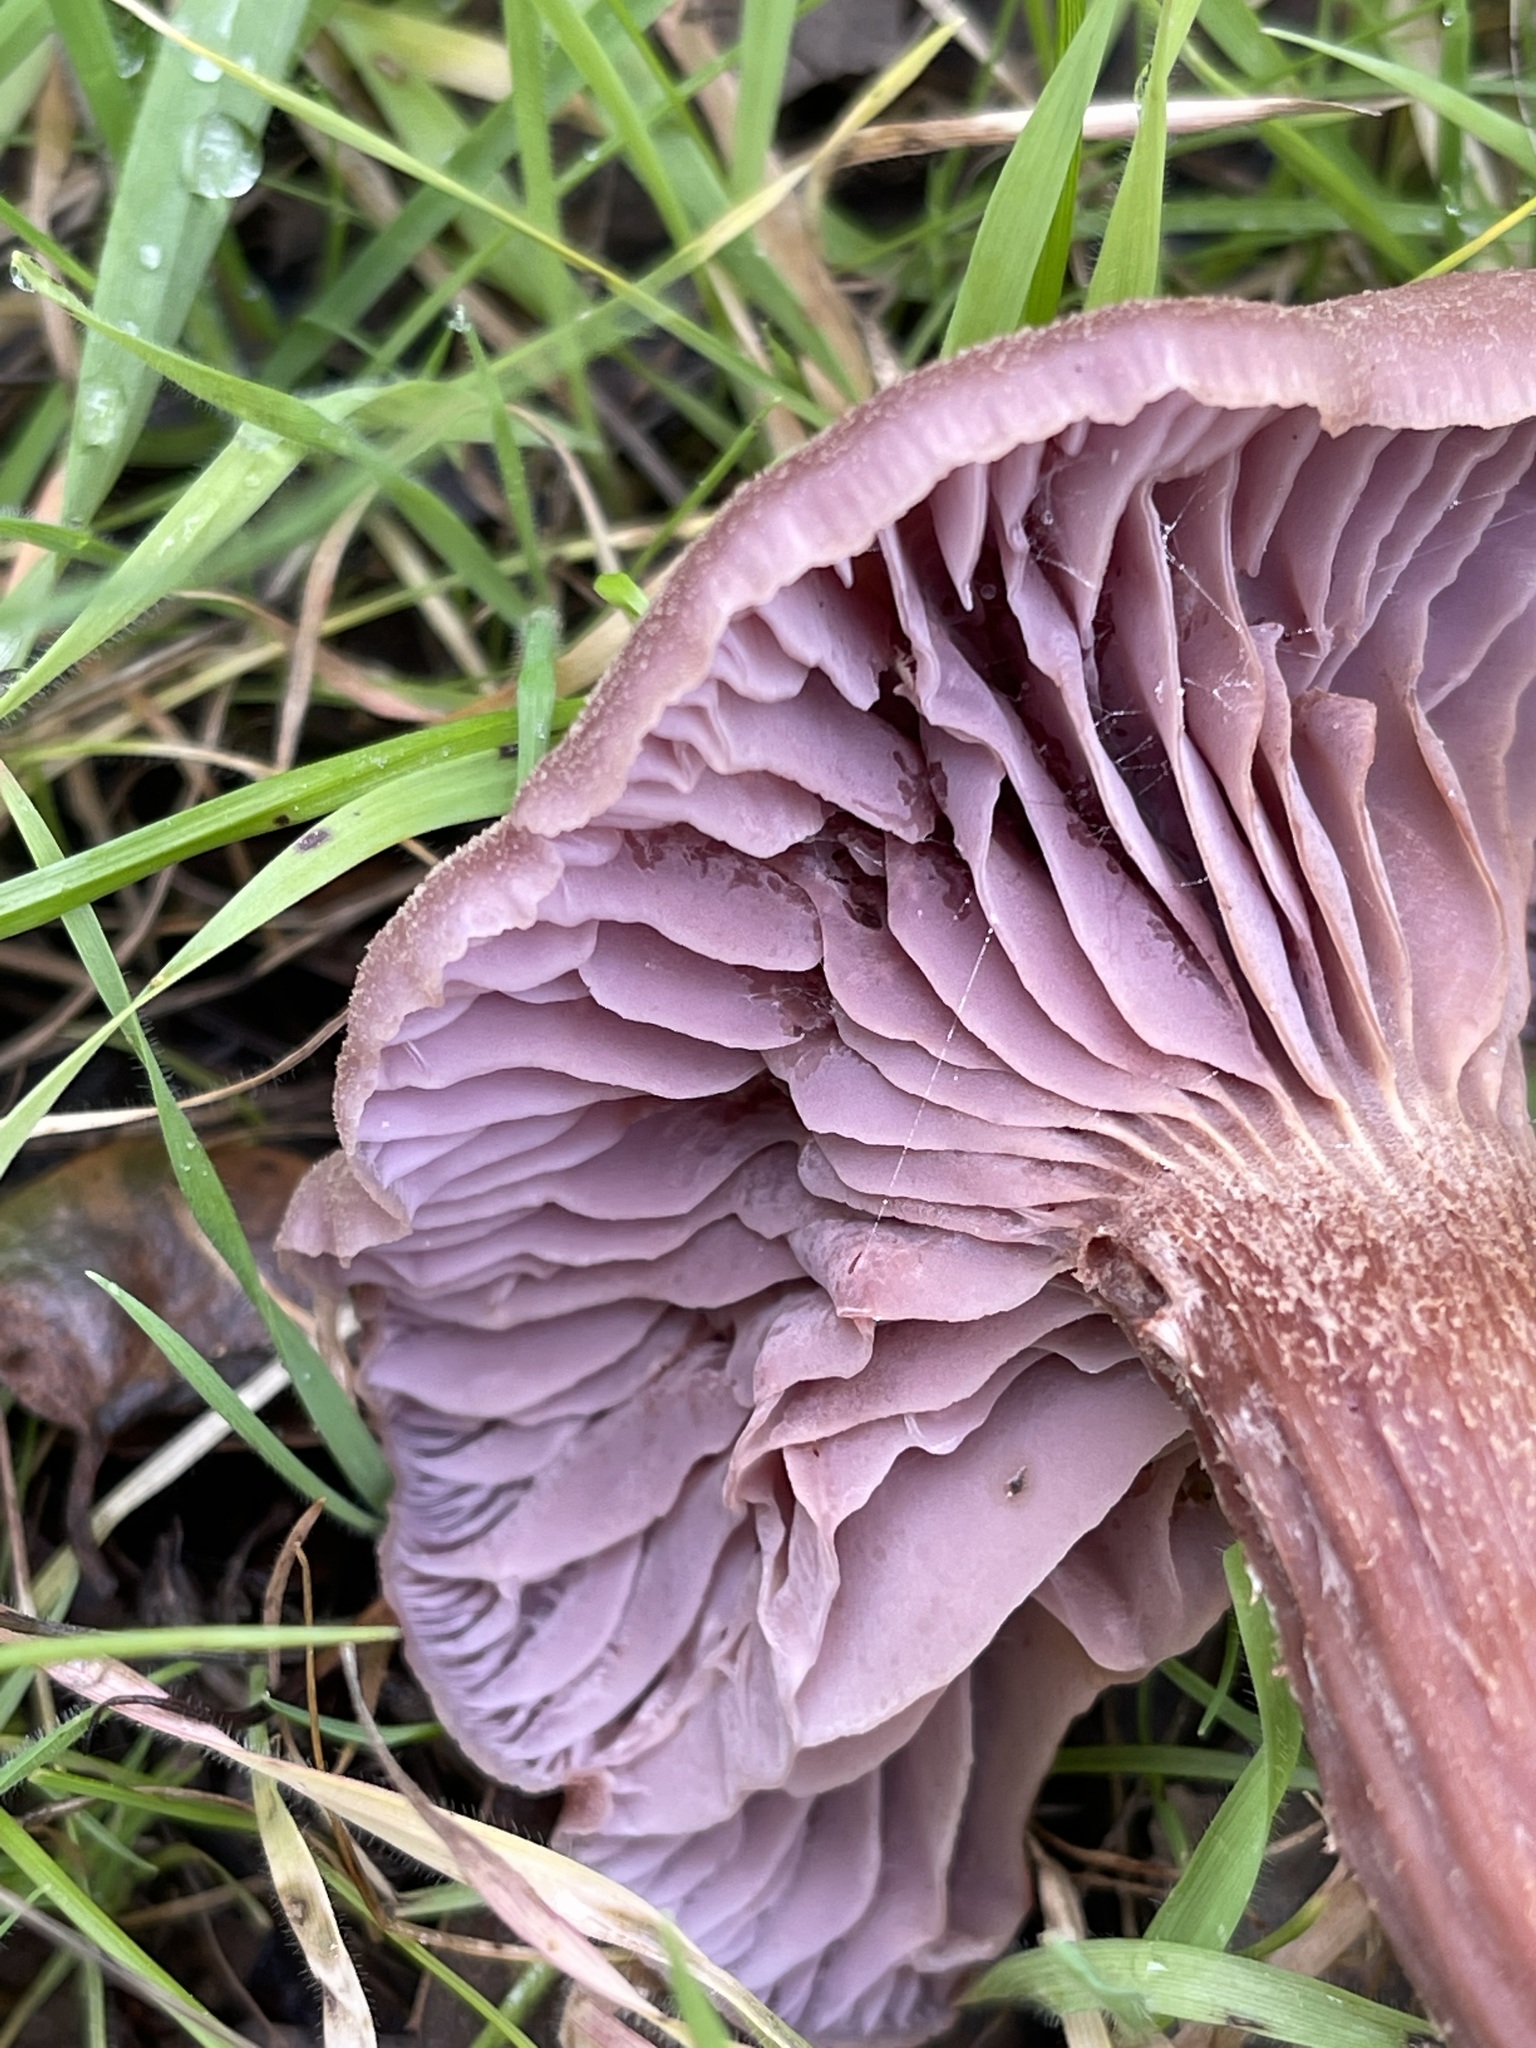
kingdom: Fungi
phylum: Basidiomycota
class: Agaricomycetes
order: Agaricales
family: Hydnangiaceae
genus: Laccaria
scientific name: Laccaria amethysteo-occidentalis
